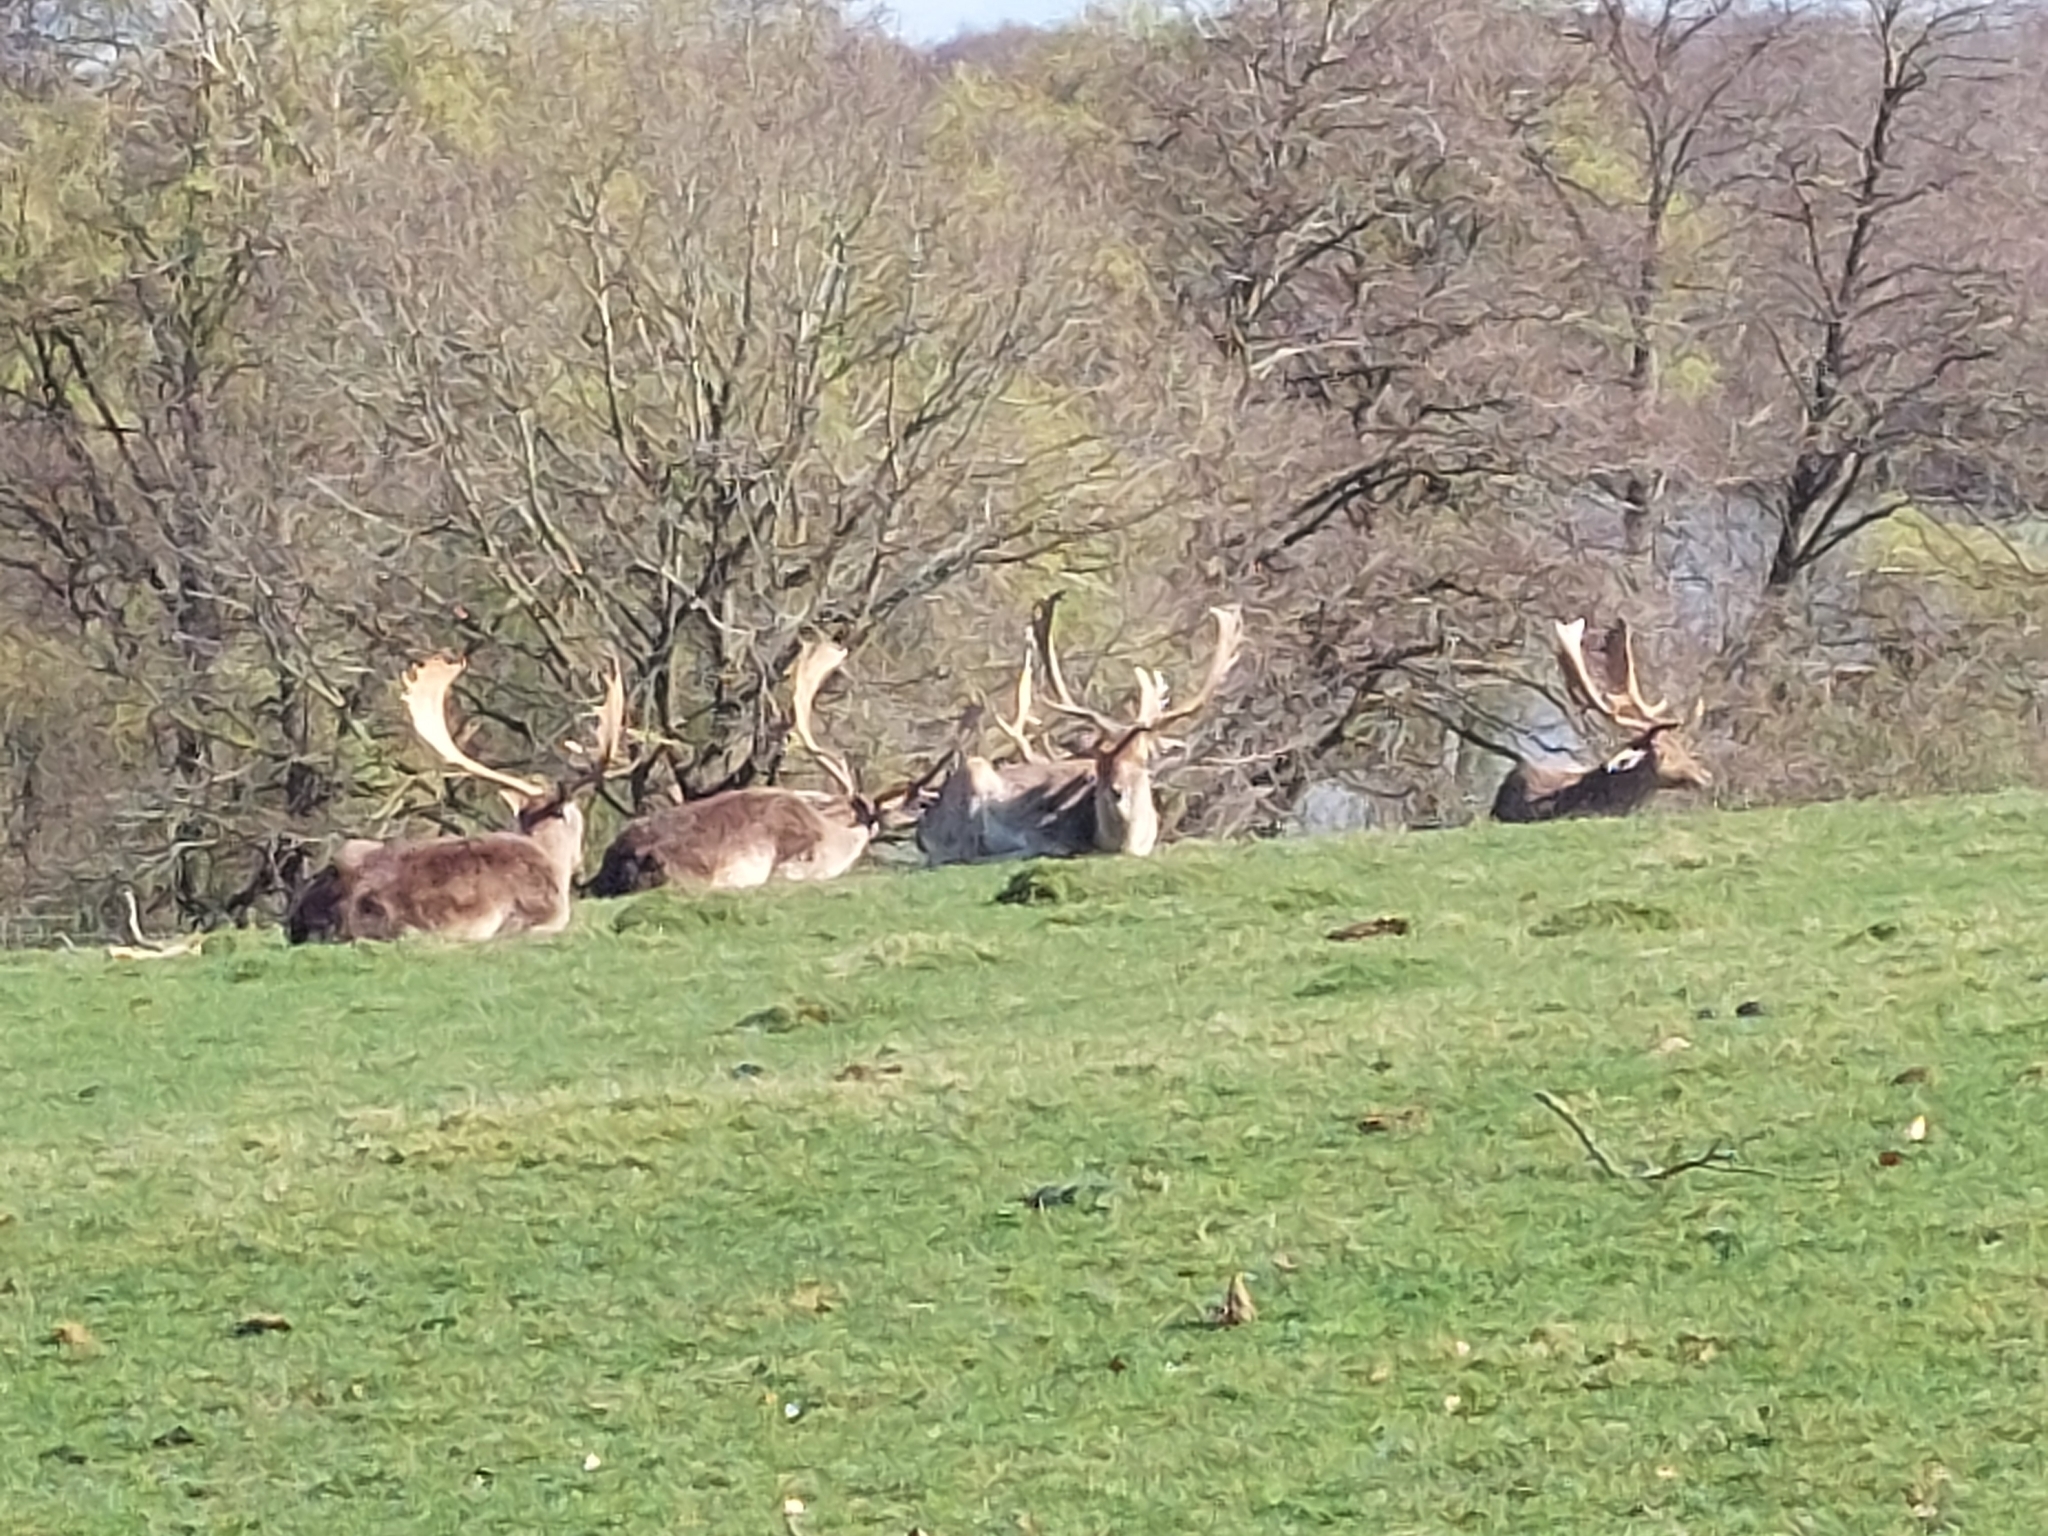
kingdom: Animalia
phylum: Chordata
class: Mammalia
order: Artiodactyla
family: Cervidae
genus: Dama
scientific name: Dama dama
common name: Fallow deer
